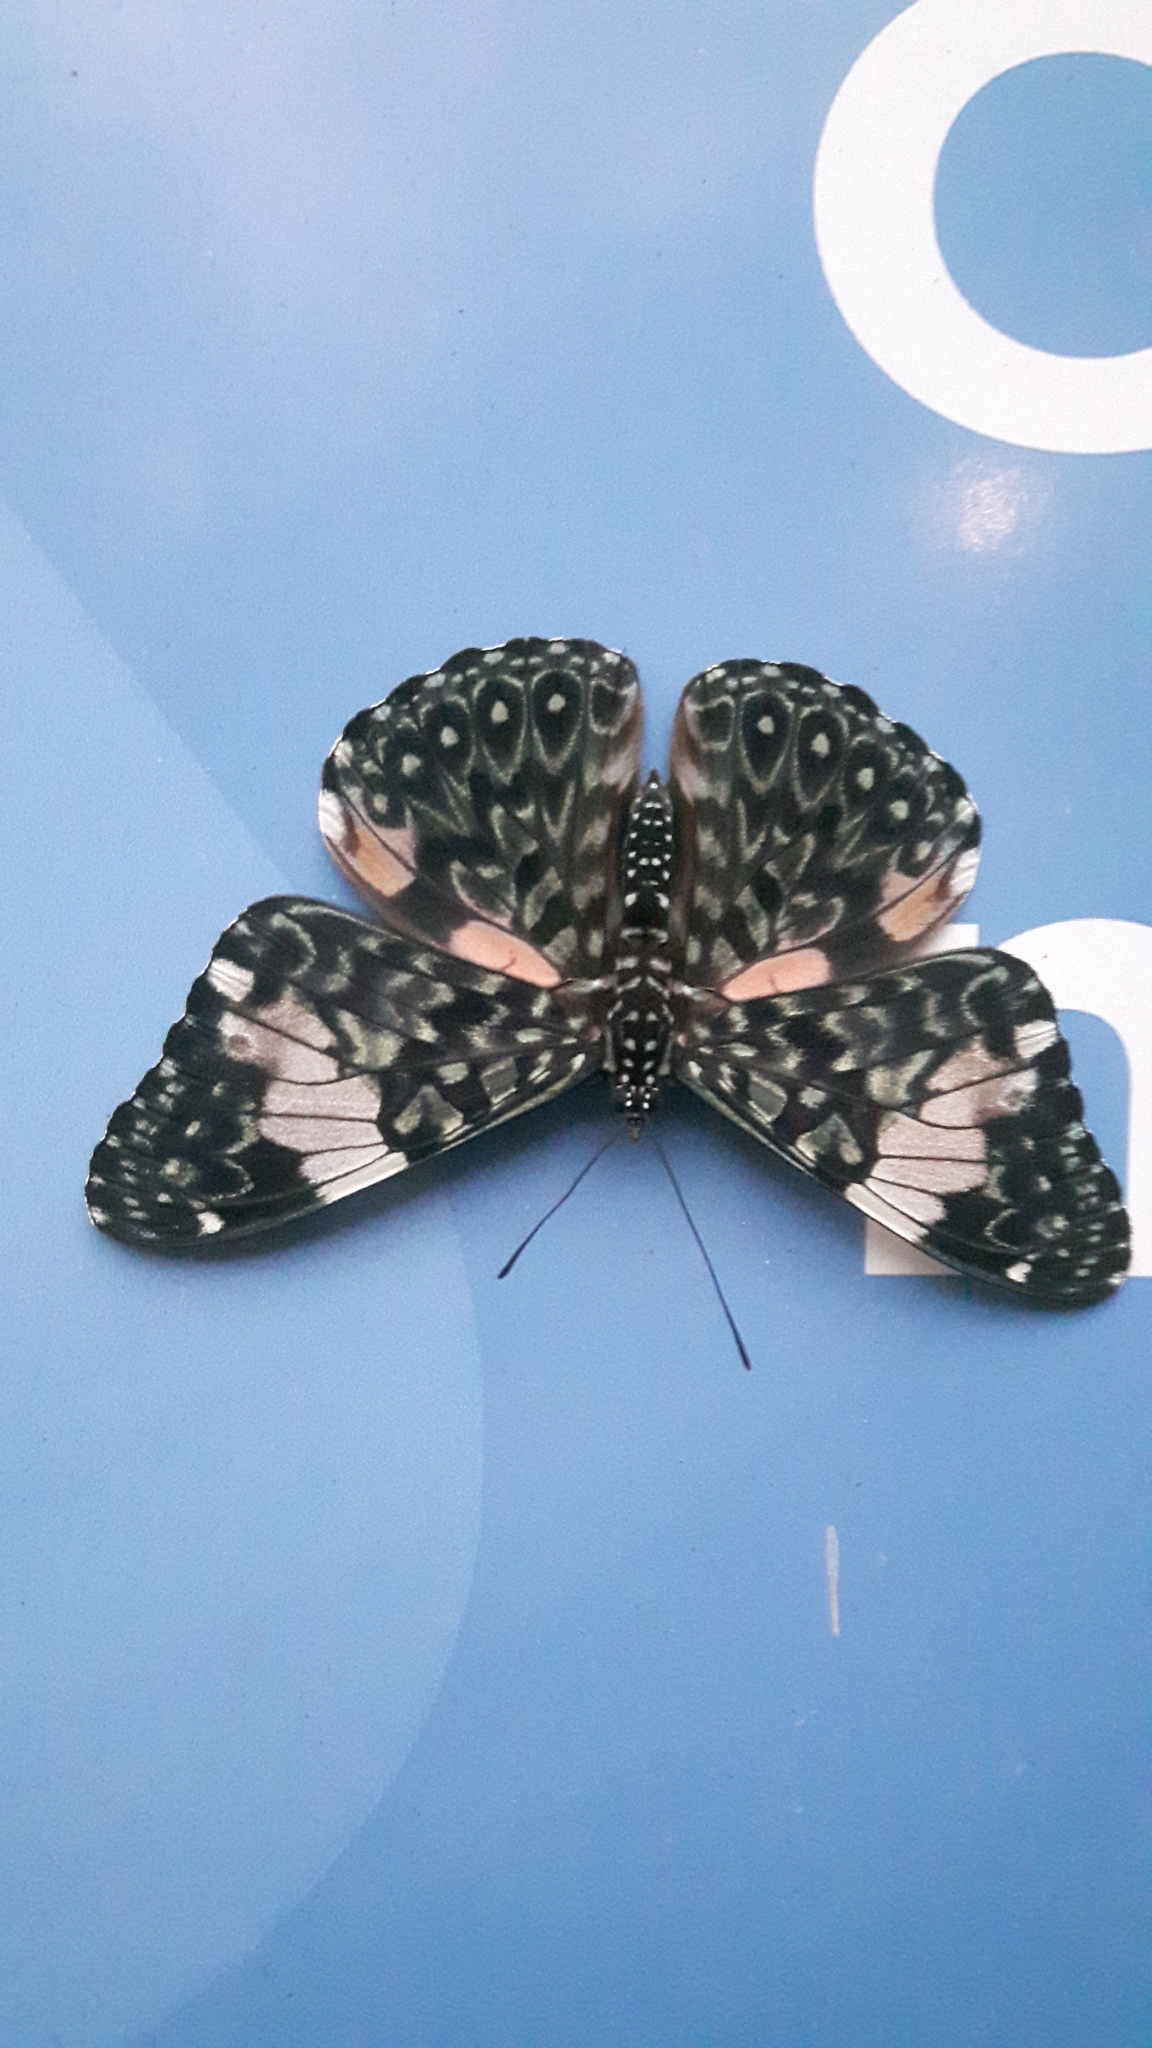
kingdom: Animalia
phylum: Arthropoda
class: Insecta
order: Lepidoptera
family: Nymphalidae
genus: Hamadryas
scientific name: Hamadryas amphinome
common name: Red cracker
